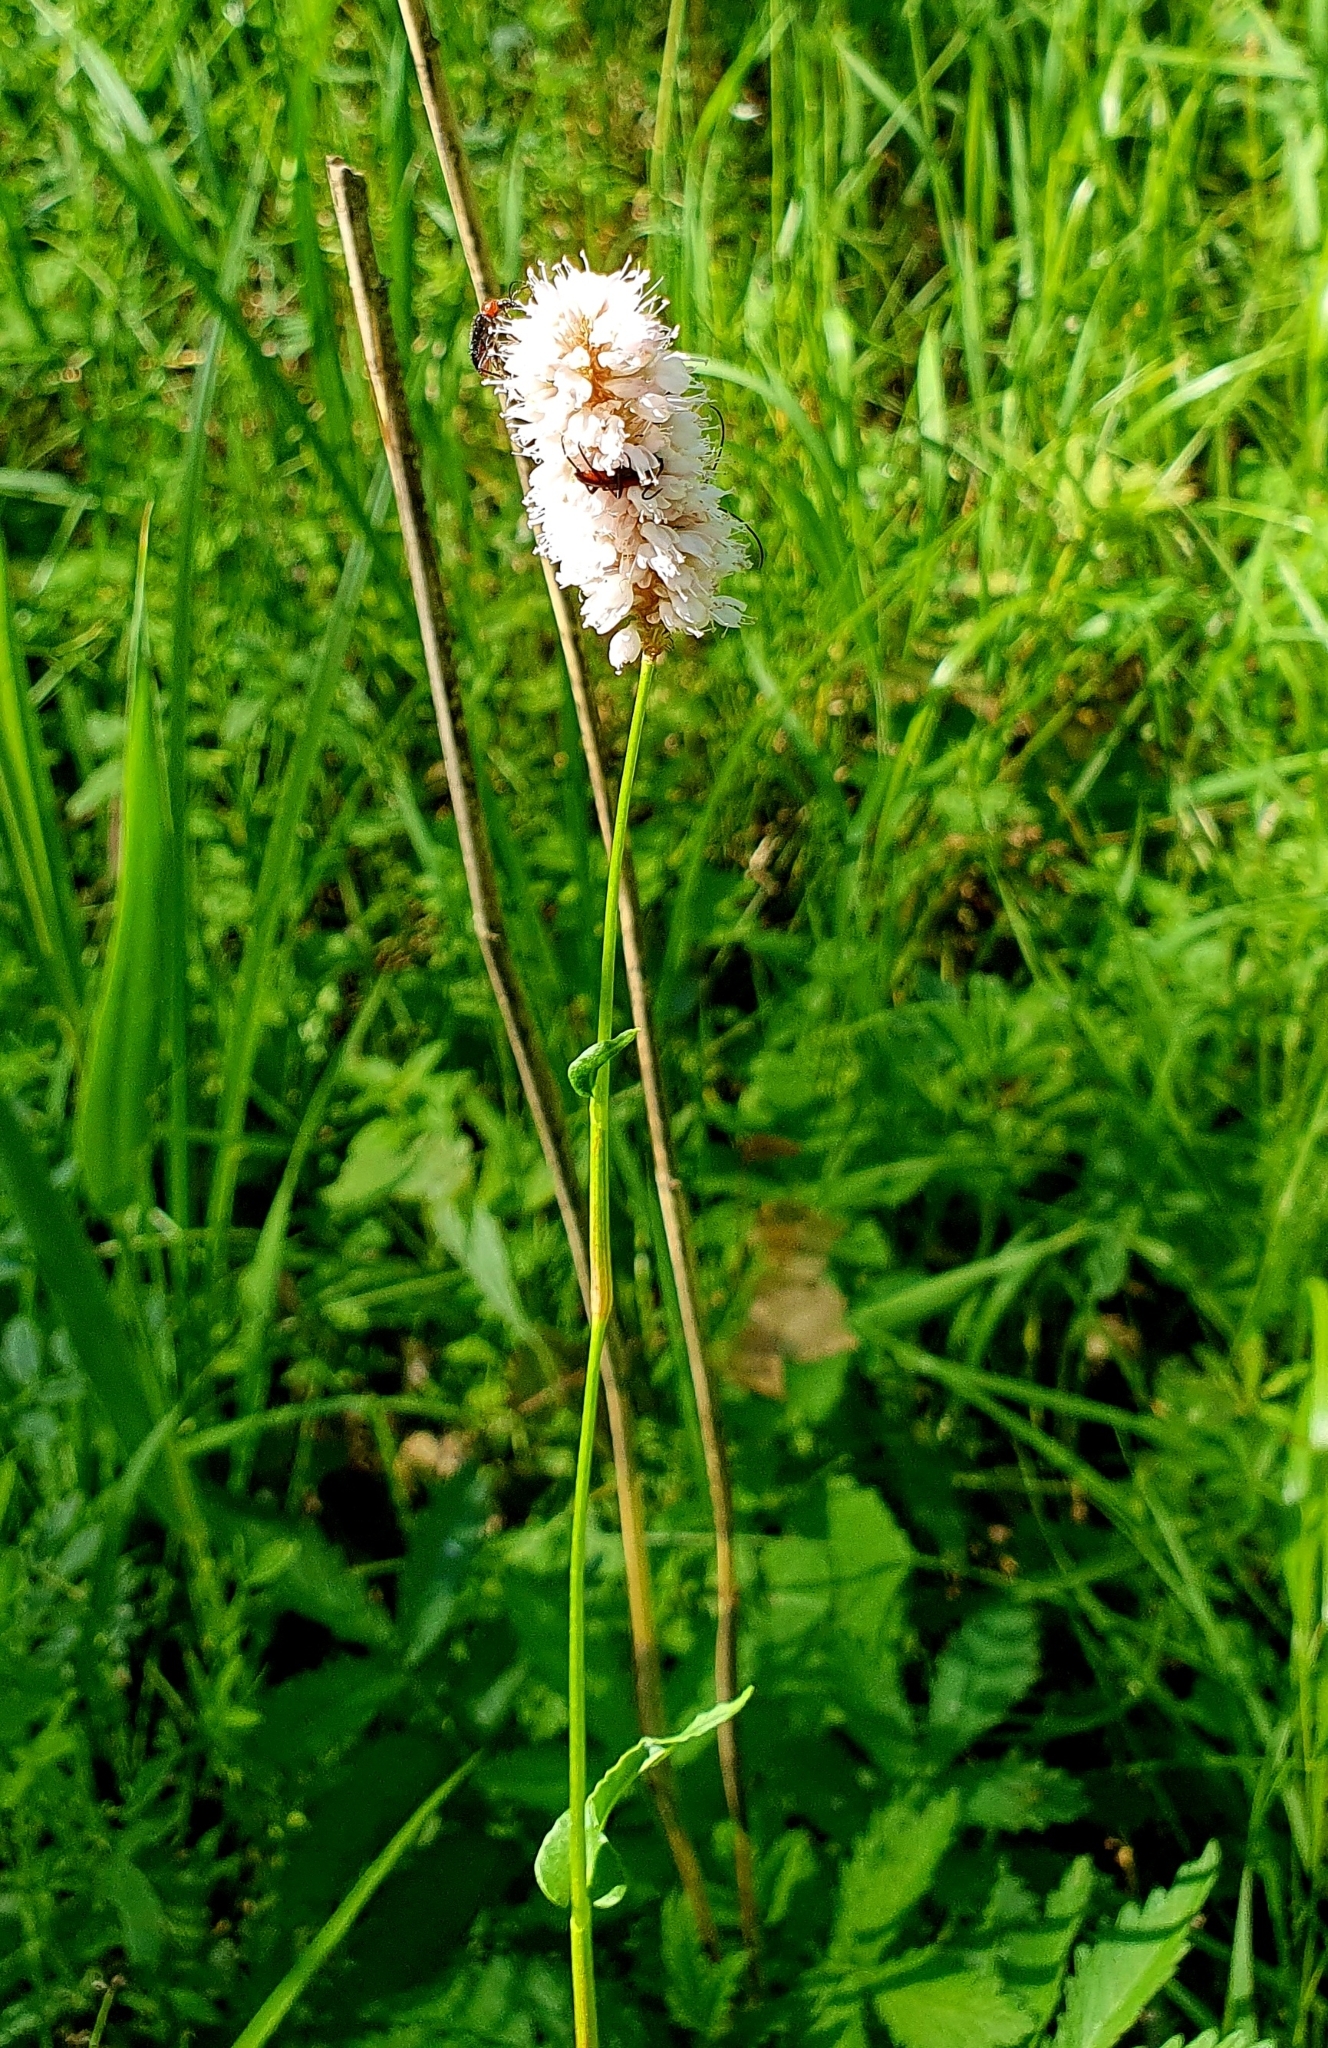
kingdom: Plantae
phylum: Tracheophyta
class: Magnoliopsida
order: Caryophyllales
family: Polygonaceae
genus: Bistorta
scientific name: Bistorta officinalis
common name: Common bistort
